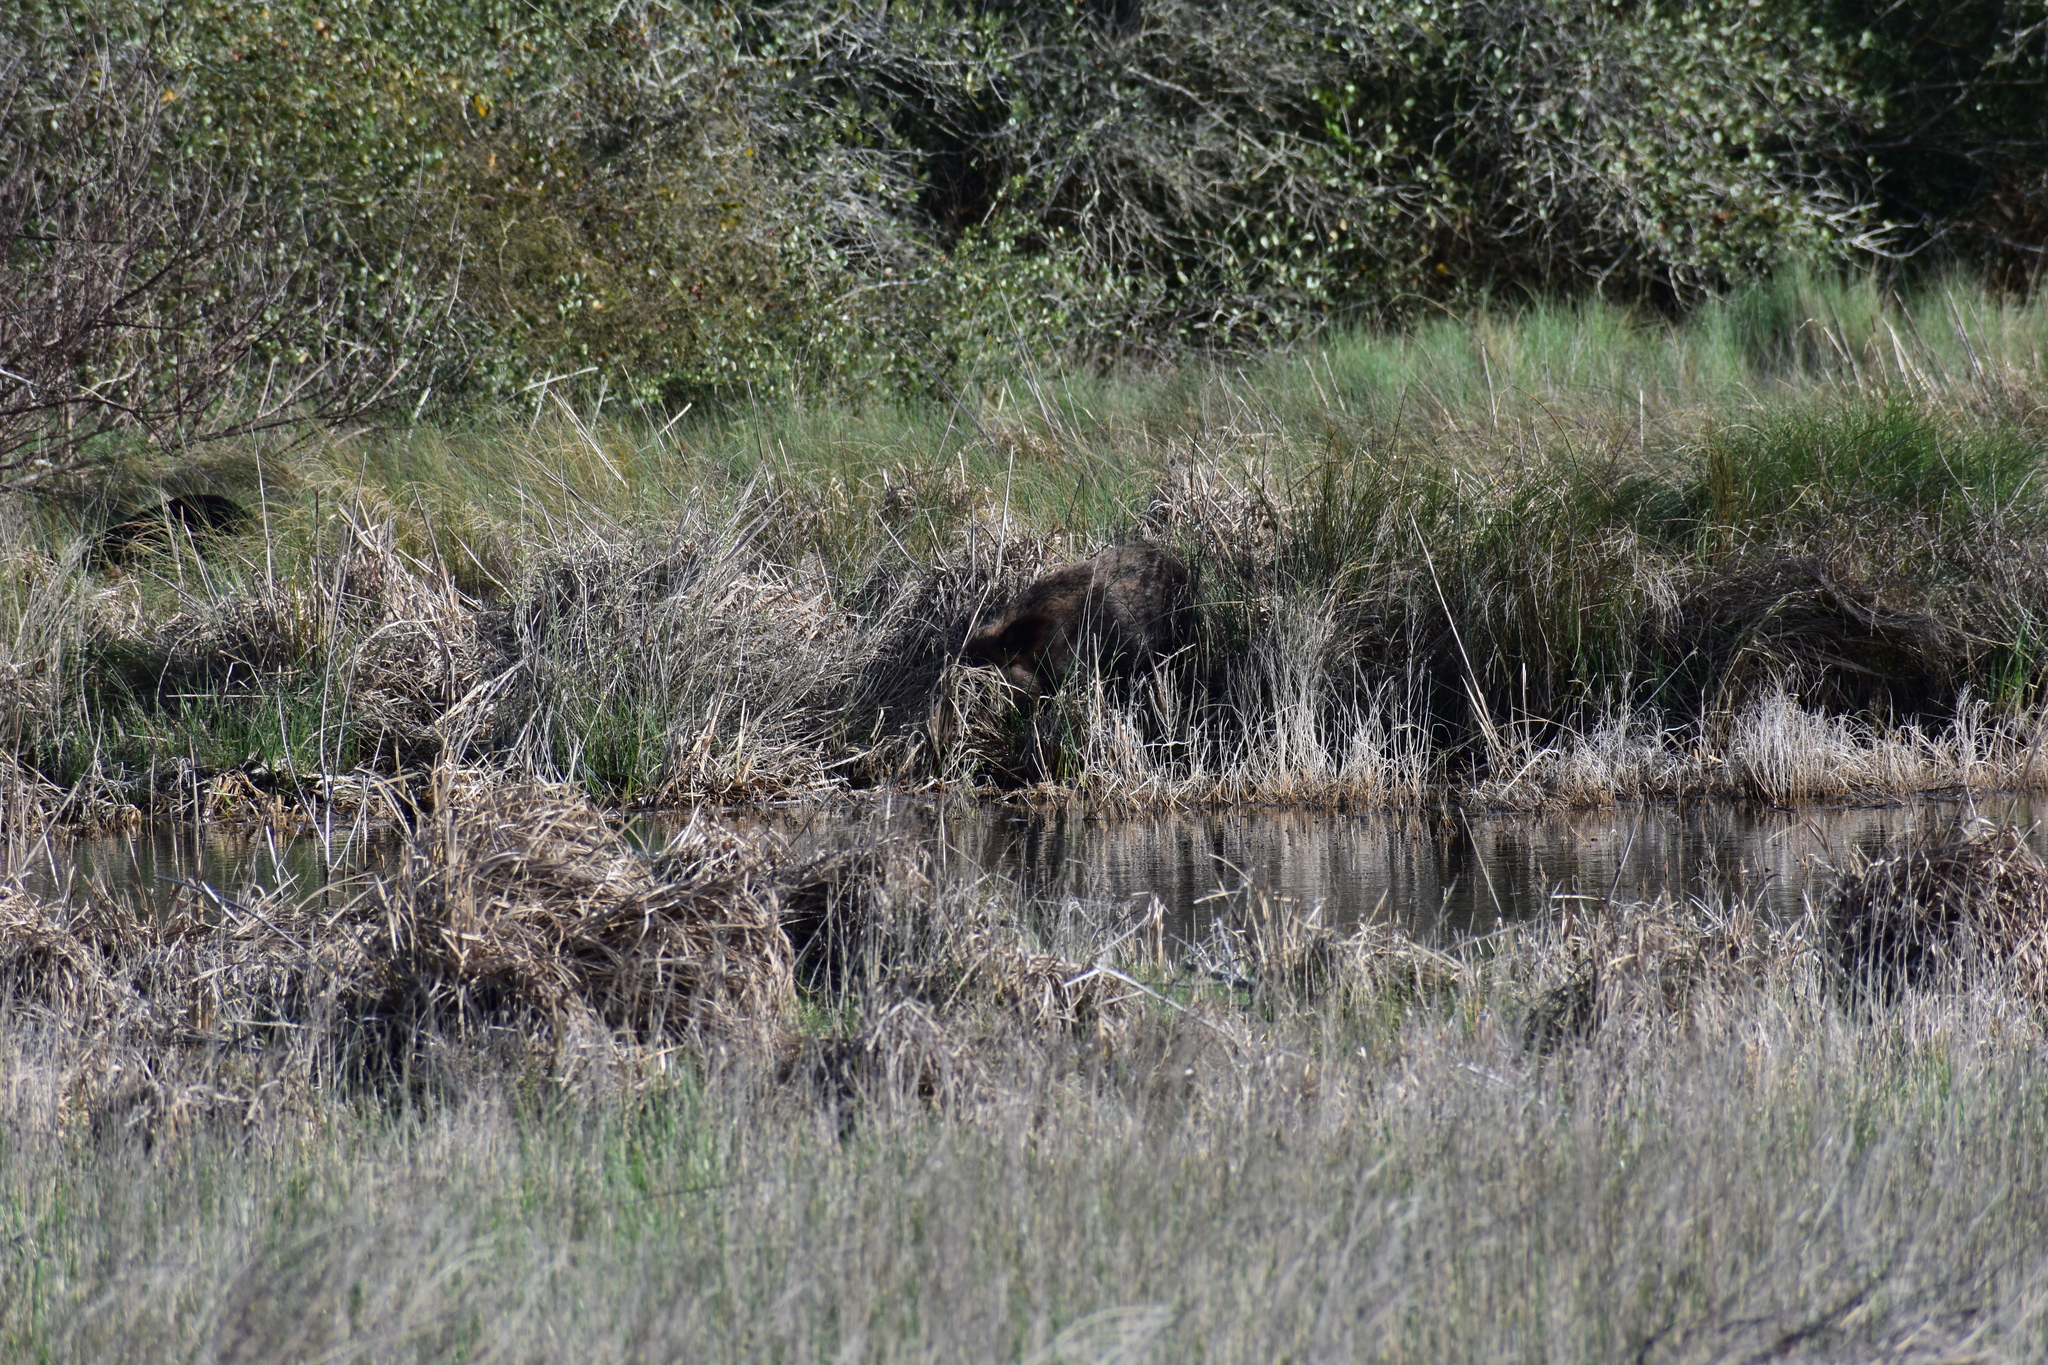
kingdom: Animalia
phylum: Chordata
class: Mammalia
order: Artiodactyla
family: Suidae
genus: Sus
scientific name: Sus scrofa
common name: Wild boar
